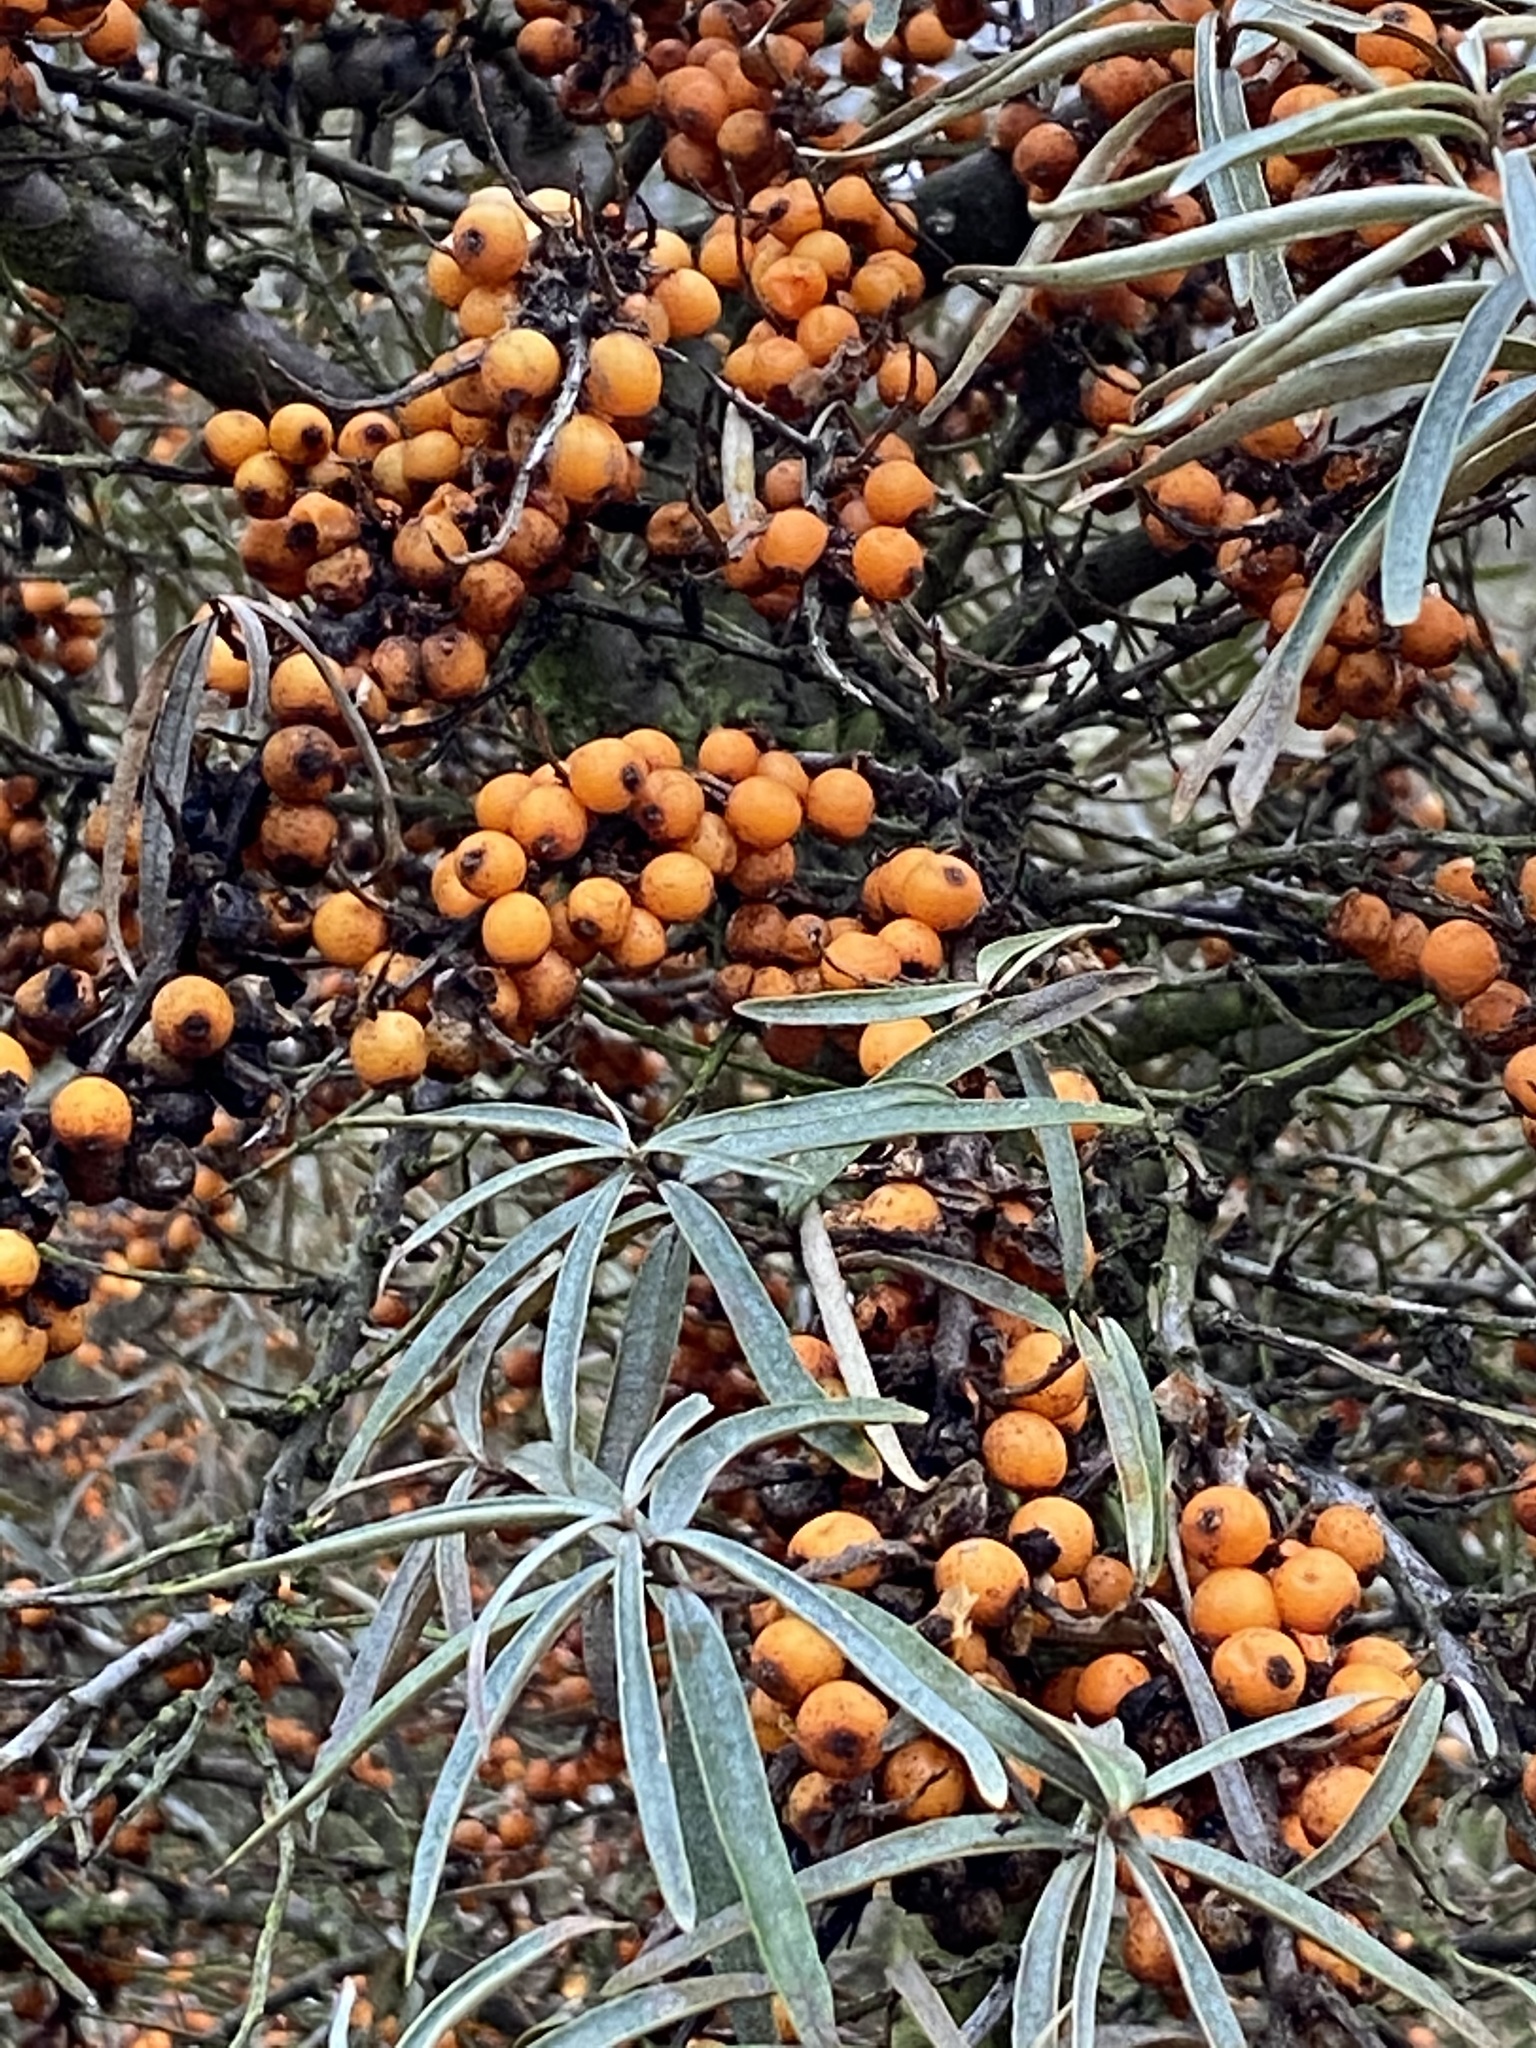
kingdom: Plantae
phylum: Tracheophyta
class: Magnoliopsida
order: Rosales
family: Elaeagnaceae
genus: Hippophae
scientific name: Hippophae rhamnoides
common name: Sea-buckthorn
